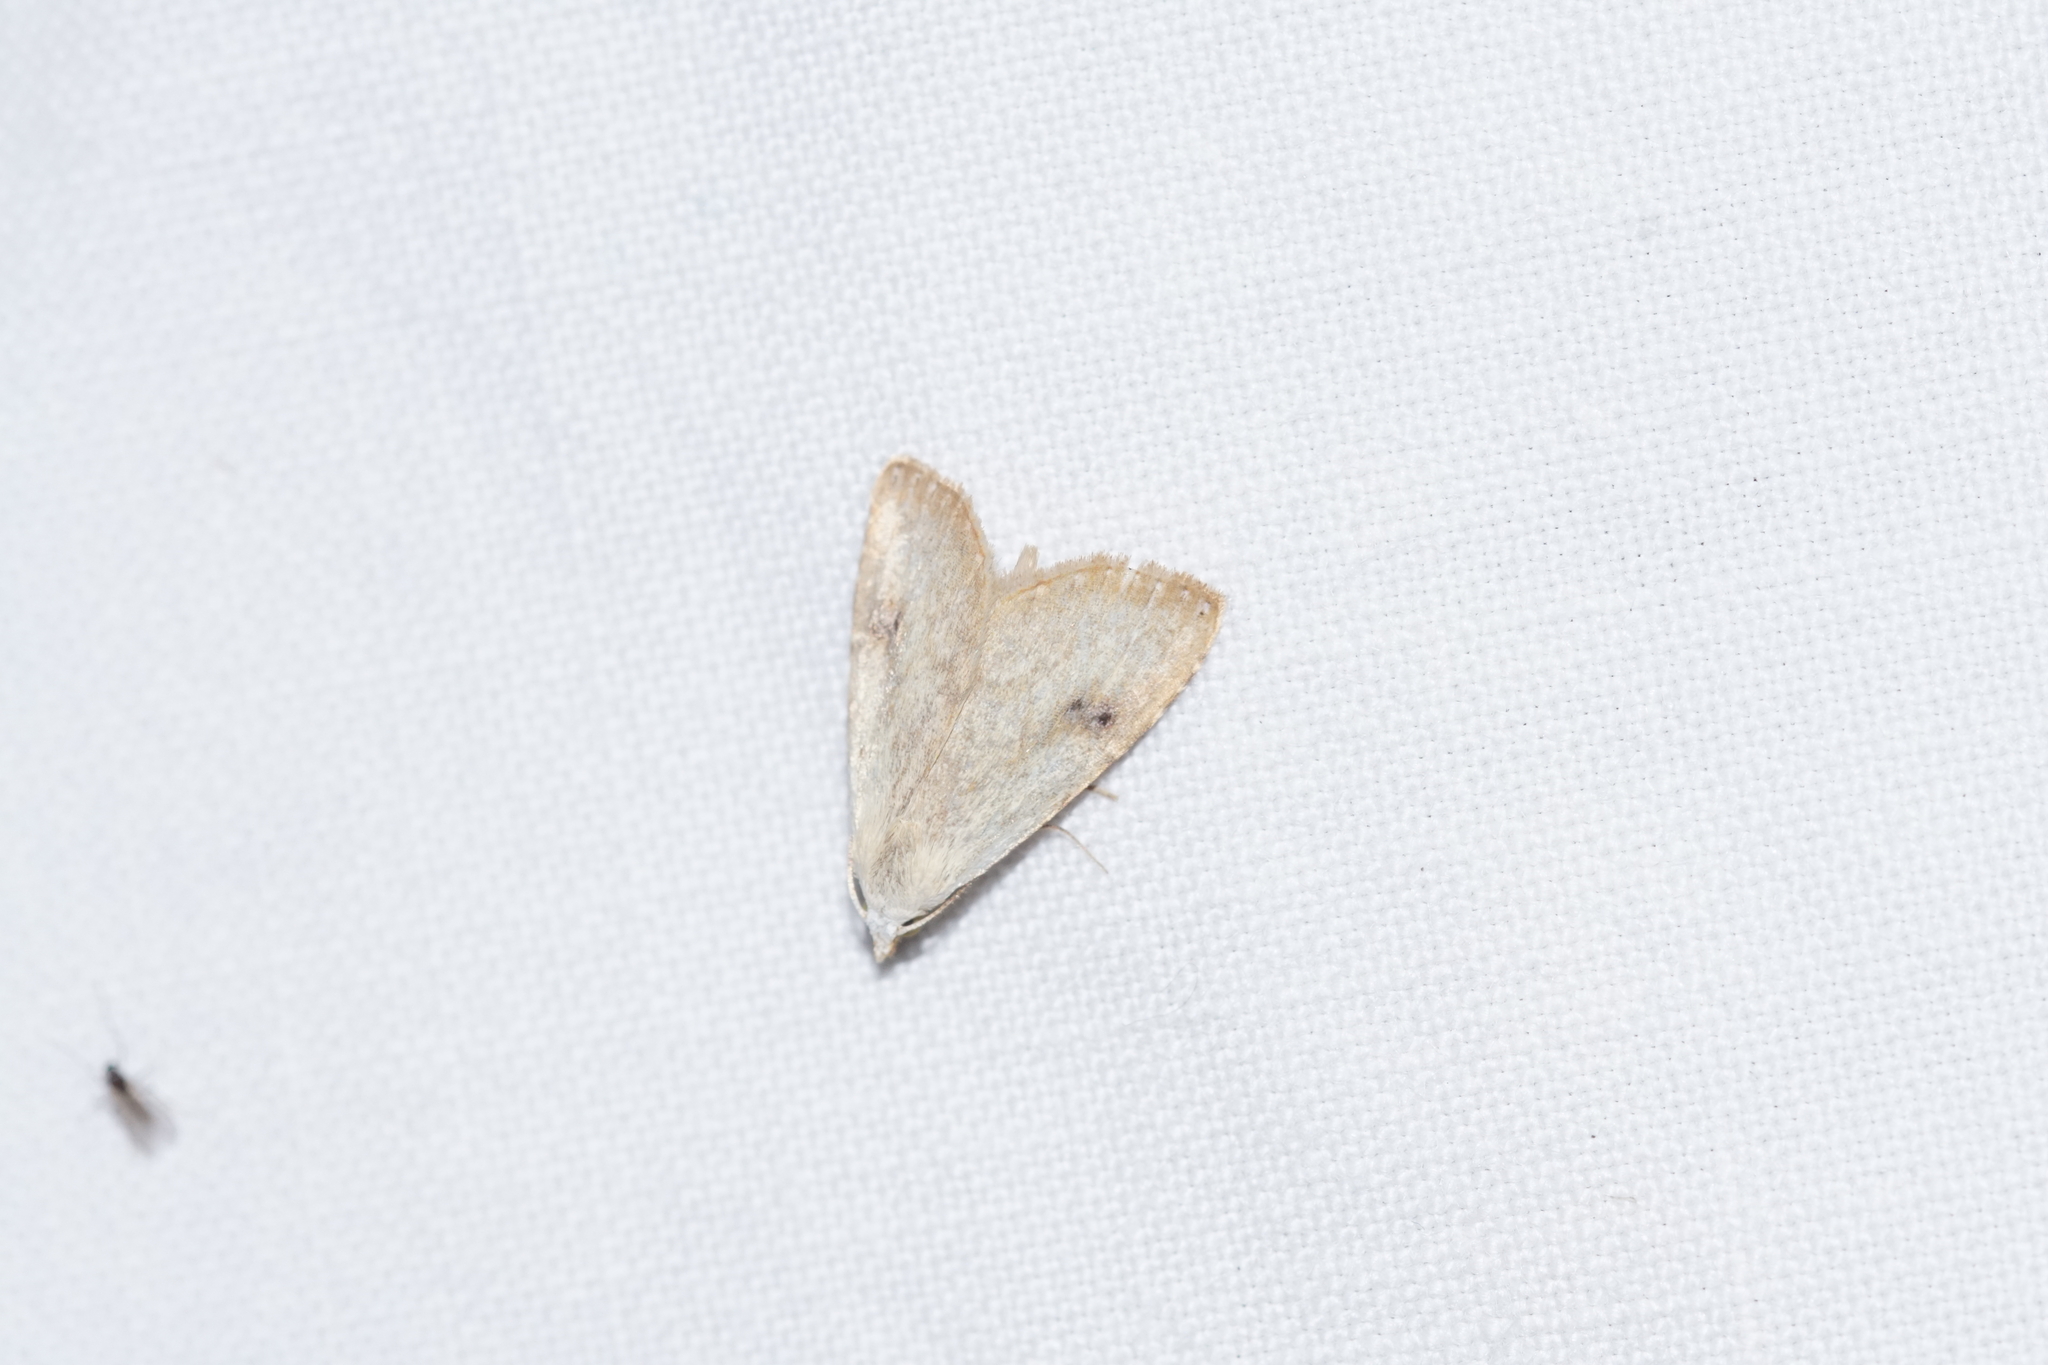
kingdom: Animalia
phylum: Arthropoda
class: Insecta
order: Lepidoptera
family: Erebidae
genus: Rivula
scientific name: Rivula sericealis
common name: Straw dot
